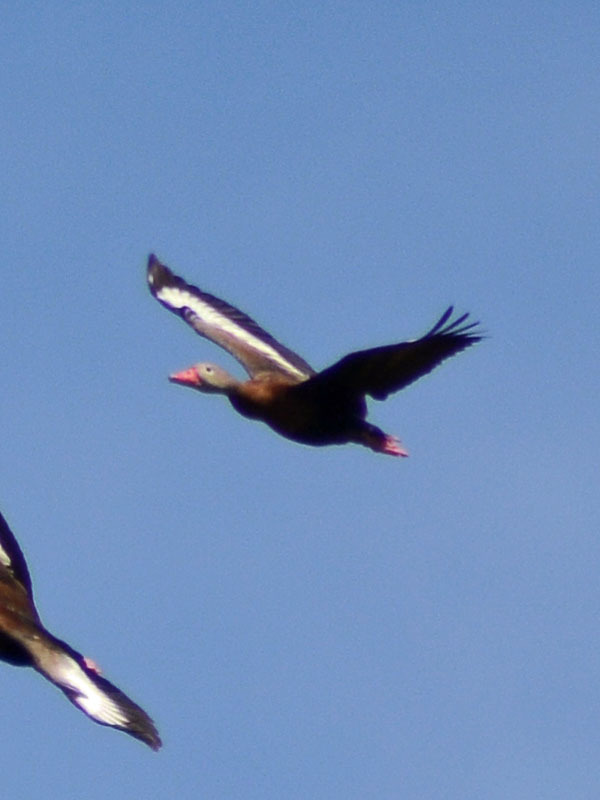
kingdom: Animalia
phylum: Chordata
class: Aves
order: Anseriformes
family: Anatidae
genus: Dendrocygna
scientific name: Dendrocygna autumnalis
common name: Black-bellied whistling duck
